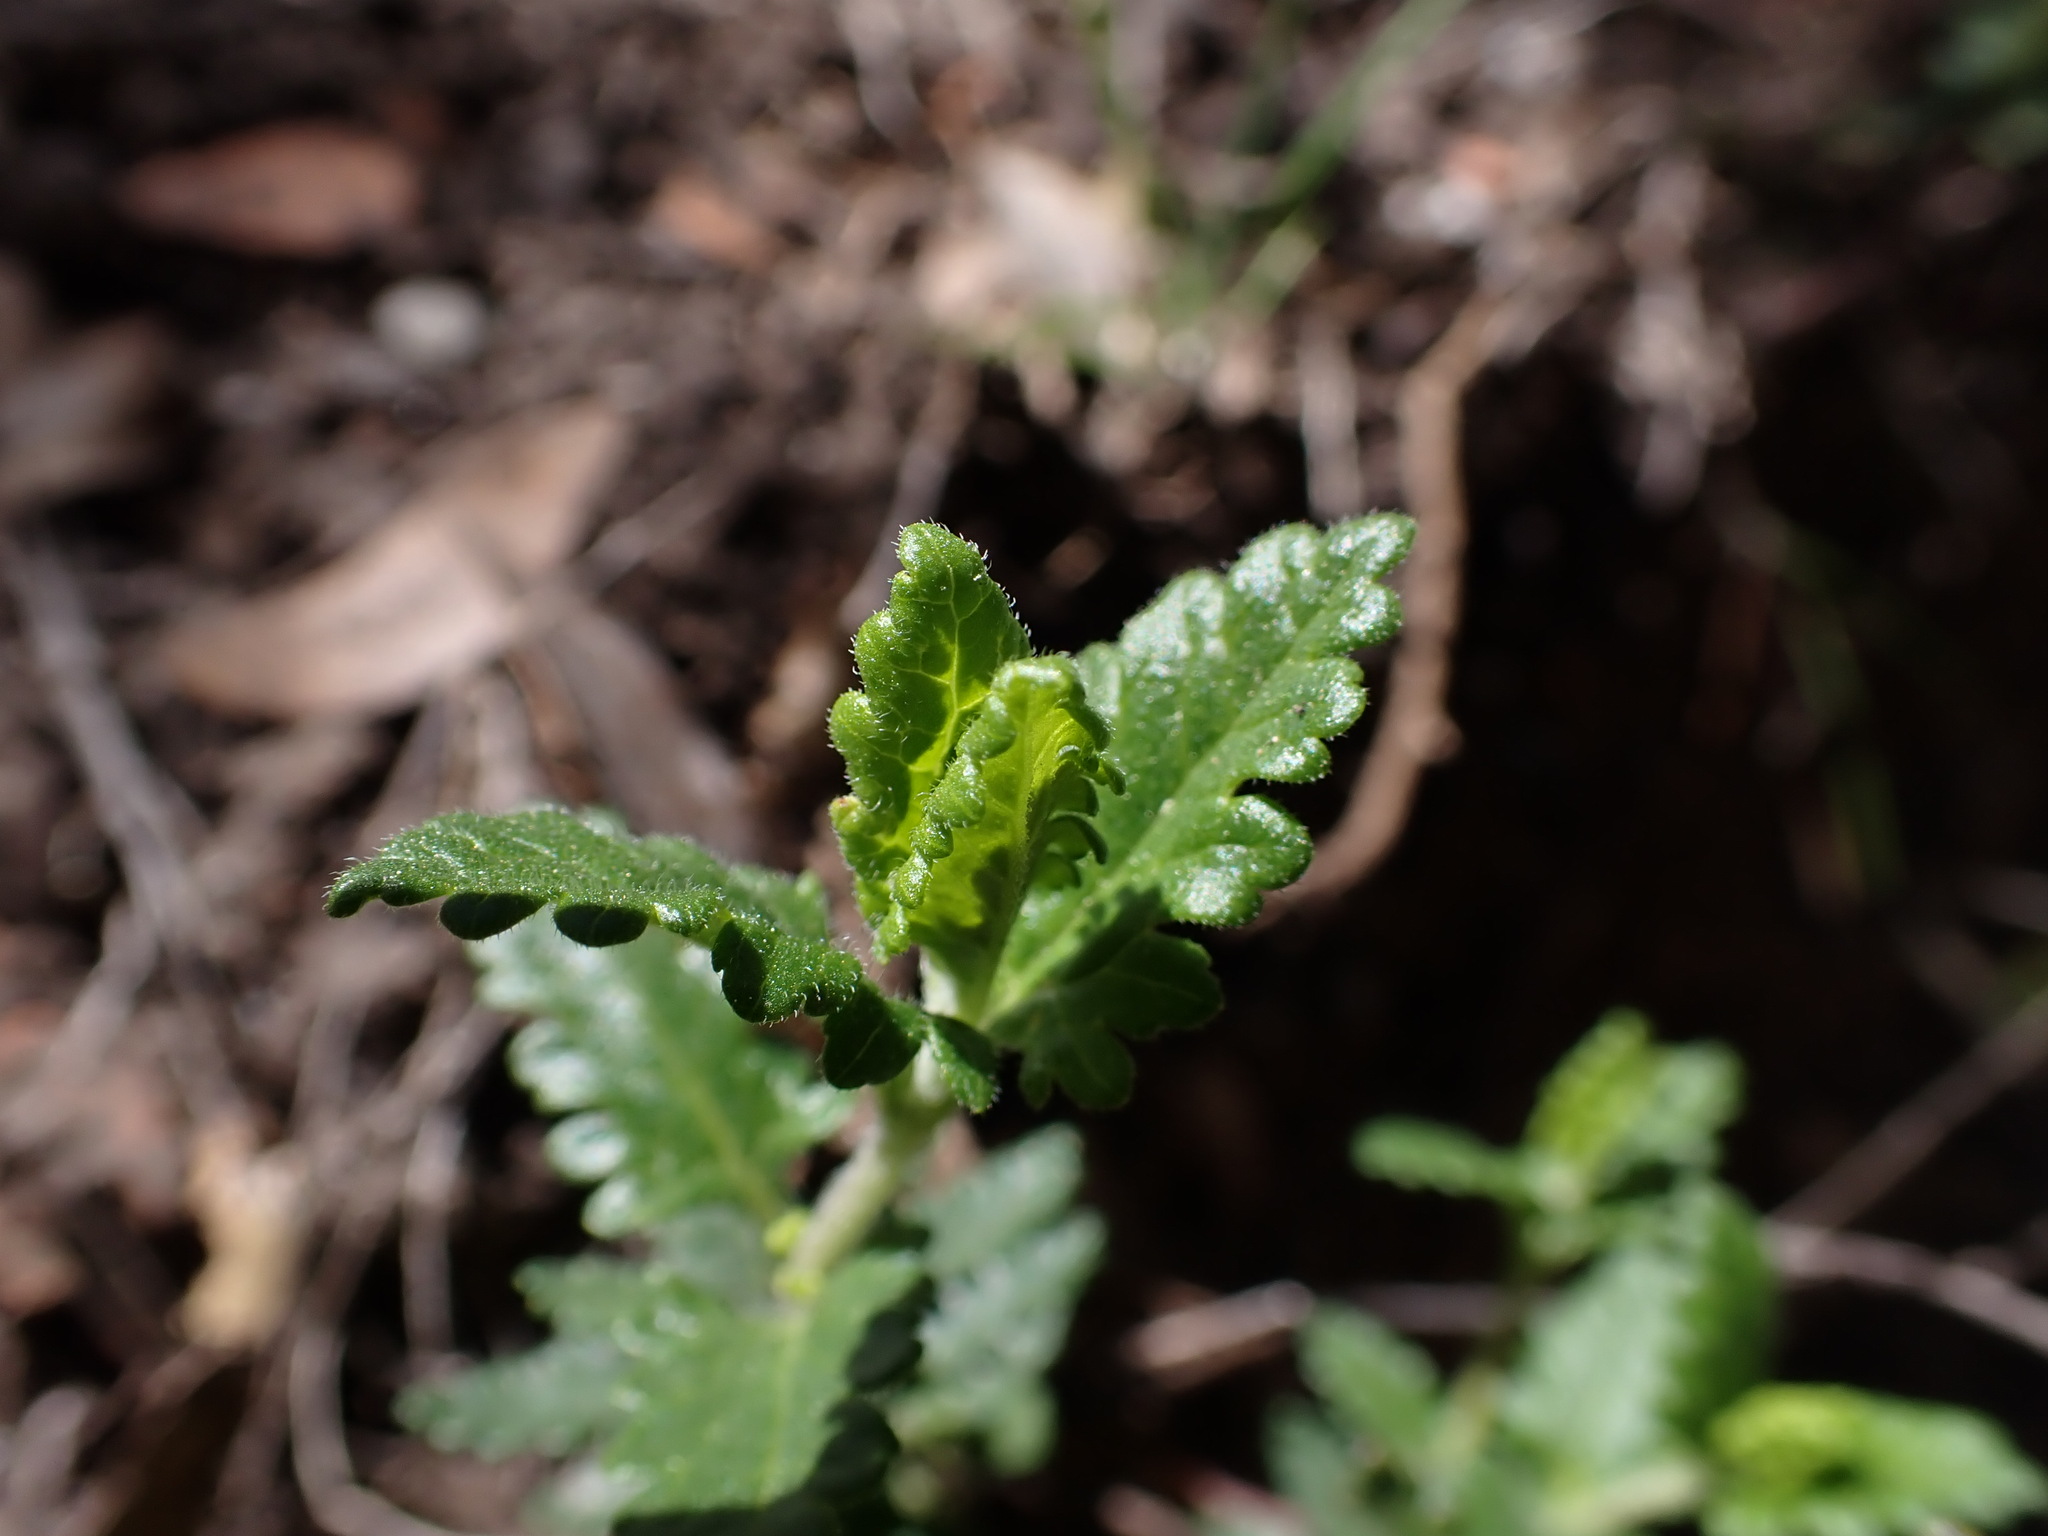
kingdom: Plantae
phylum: Tracheophyta
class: Magnoliopsida
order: Lamiales
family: Lamiaceae
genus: Teucrium
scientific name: Teucrium chamaedrys
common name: Wall germander
